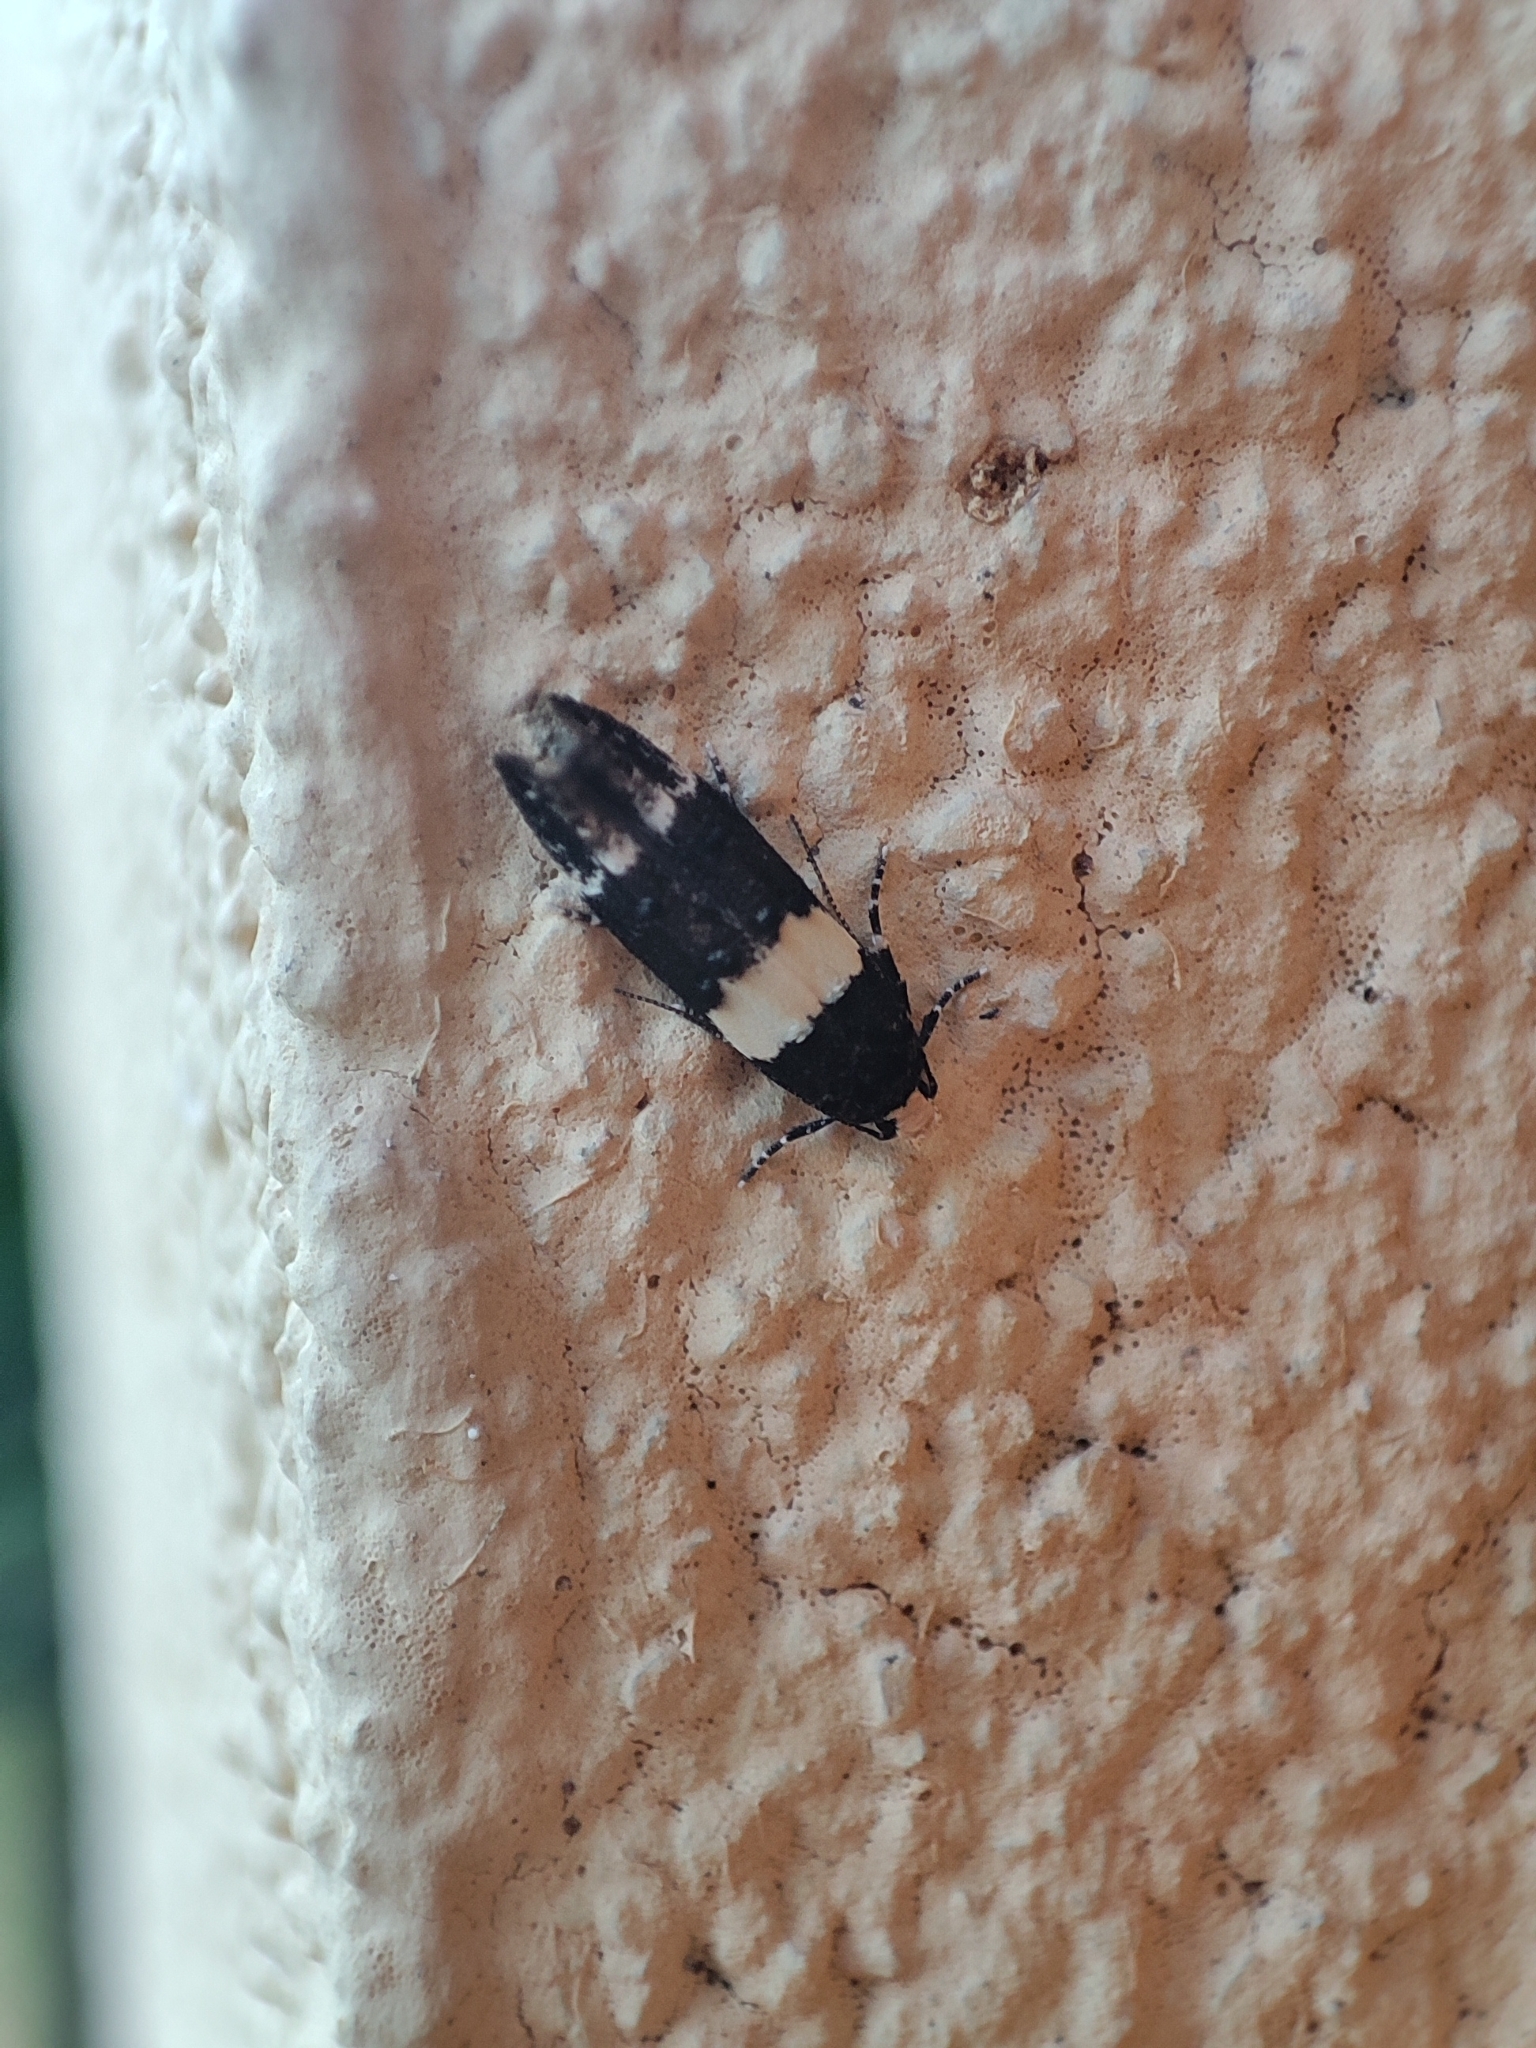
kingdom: Animalia
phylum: Arthropoda
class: Insecta
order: Lepidoptera
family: Gelechiidae
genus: Recurvaria
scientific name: Recurvaria leucatella
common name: White-barred groundling
